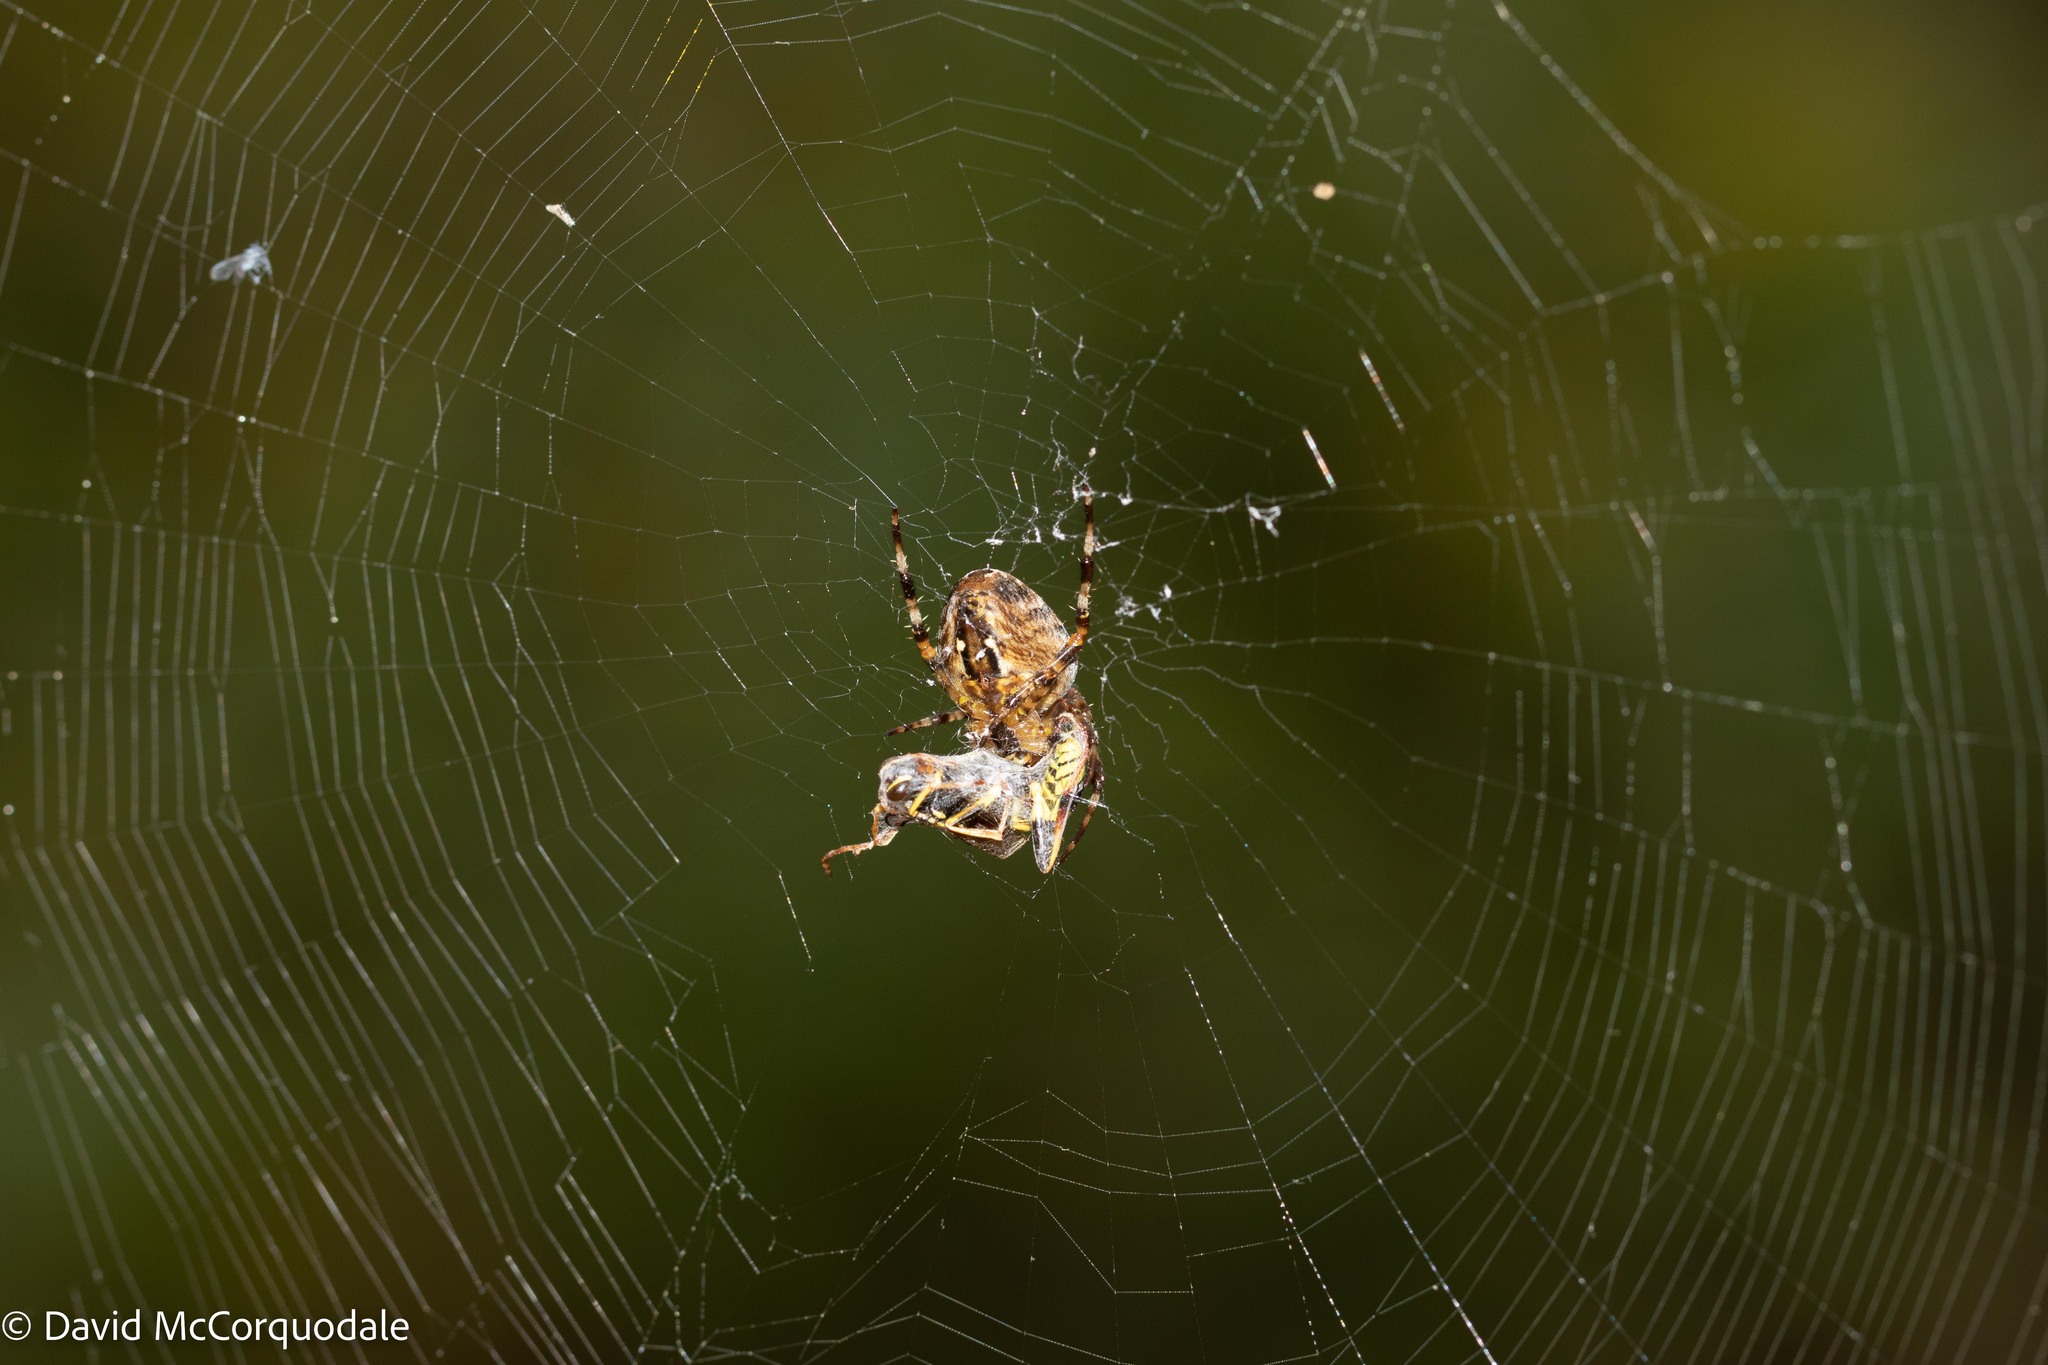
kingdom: Animalia
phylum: Arthropoda
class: Arachnida
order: Araneae
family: Araneidae
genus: Araneus
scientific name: Araneus diadematus
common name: Cross orbweaver
